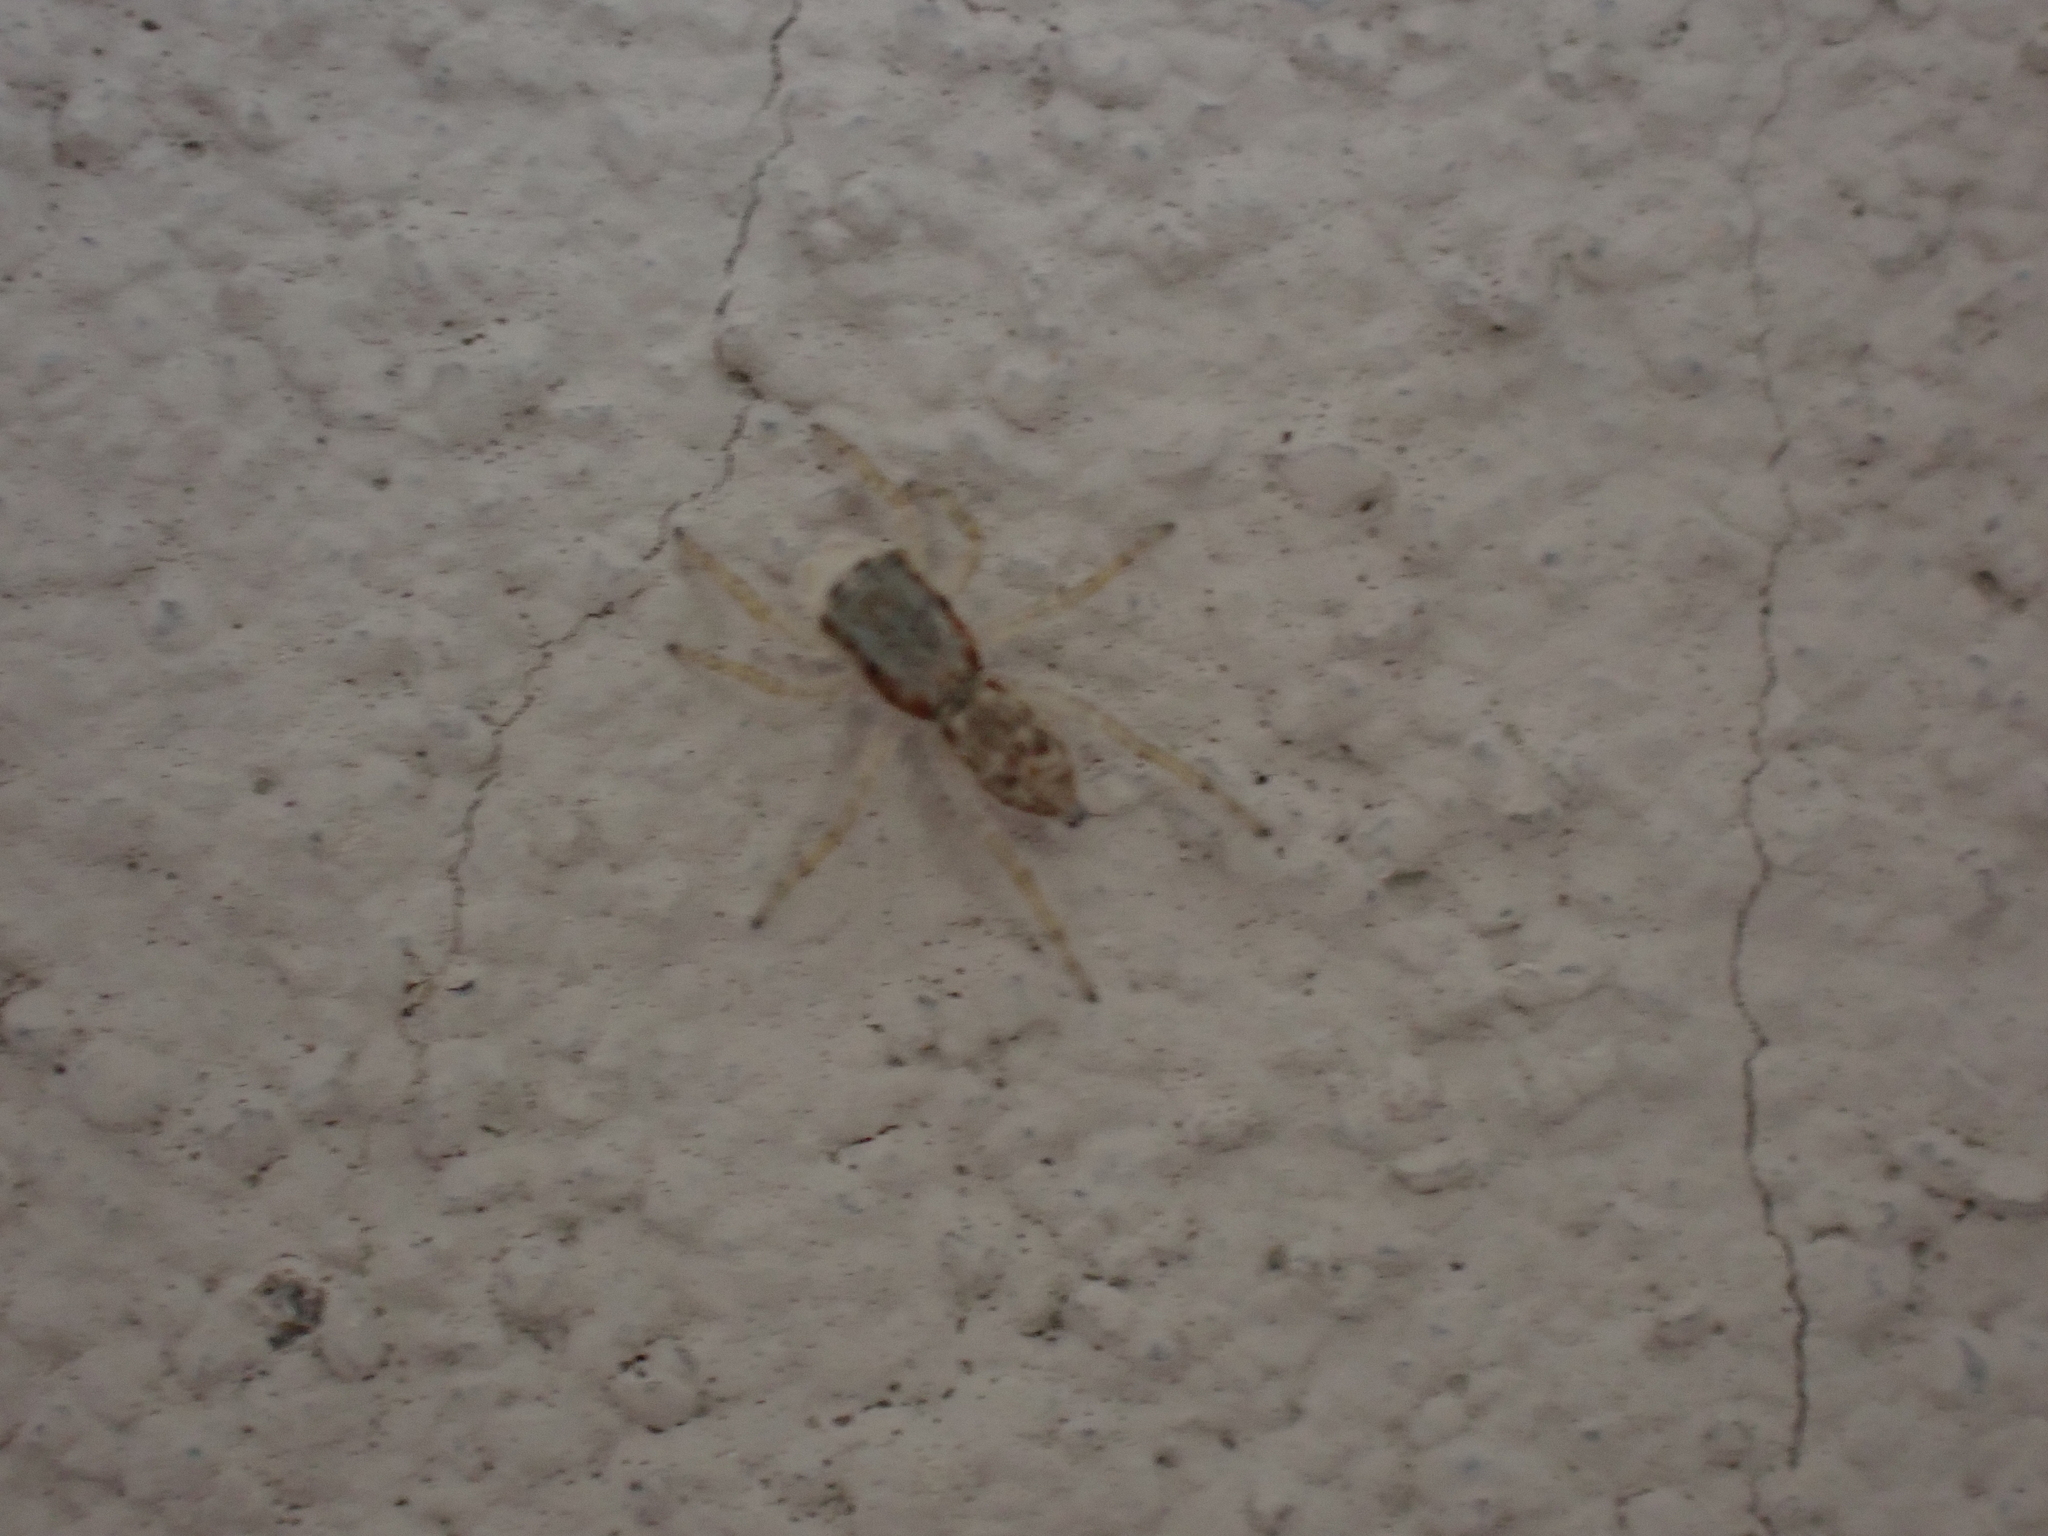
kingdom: Animalia
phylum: Arthropoda
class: Arachnida
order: Araneae
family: Salticidae
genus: Menemerus
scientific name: Menemerus bivittatus
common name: Gray wall jumper
